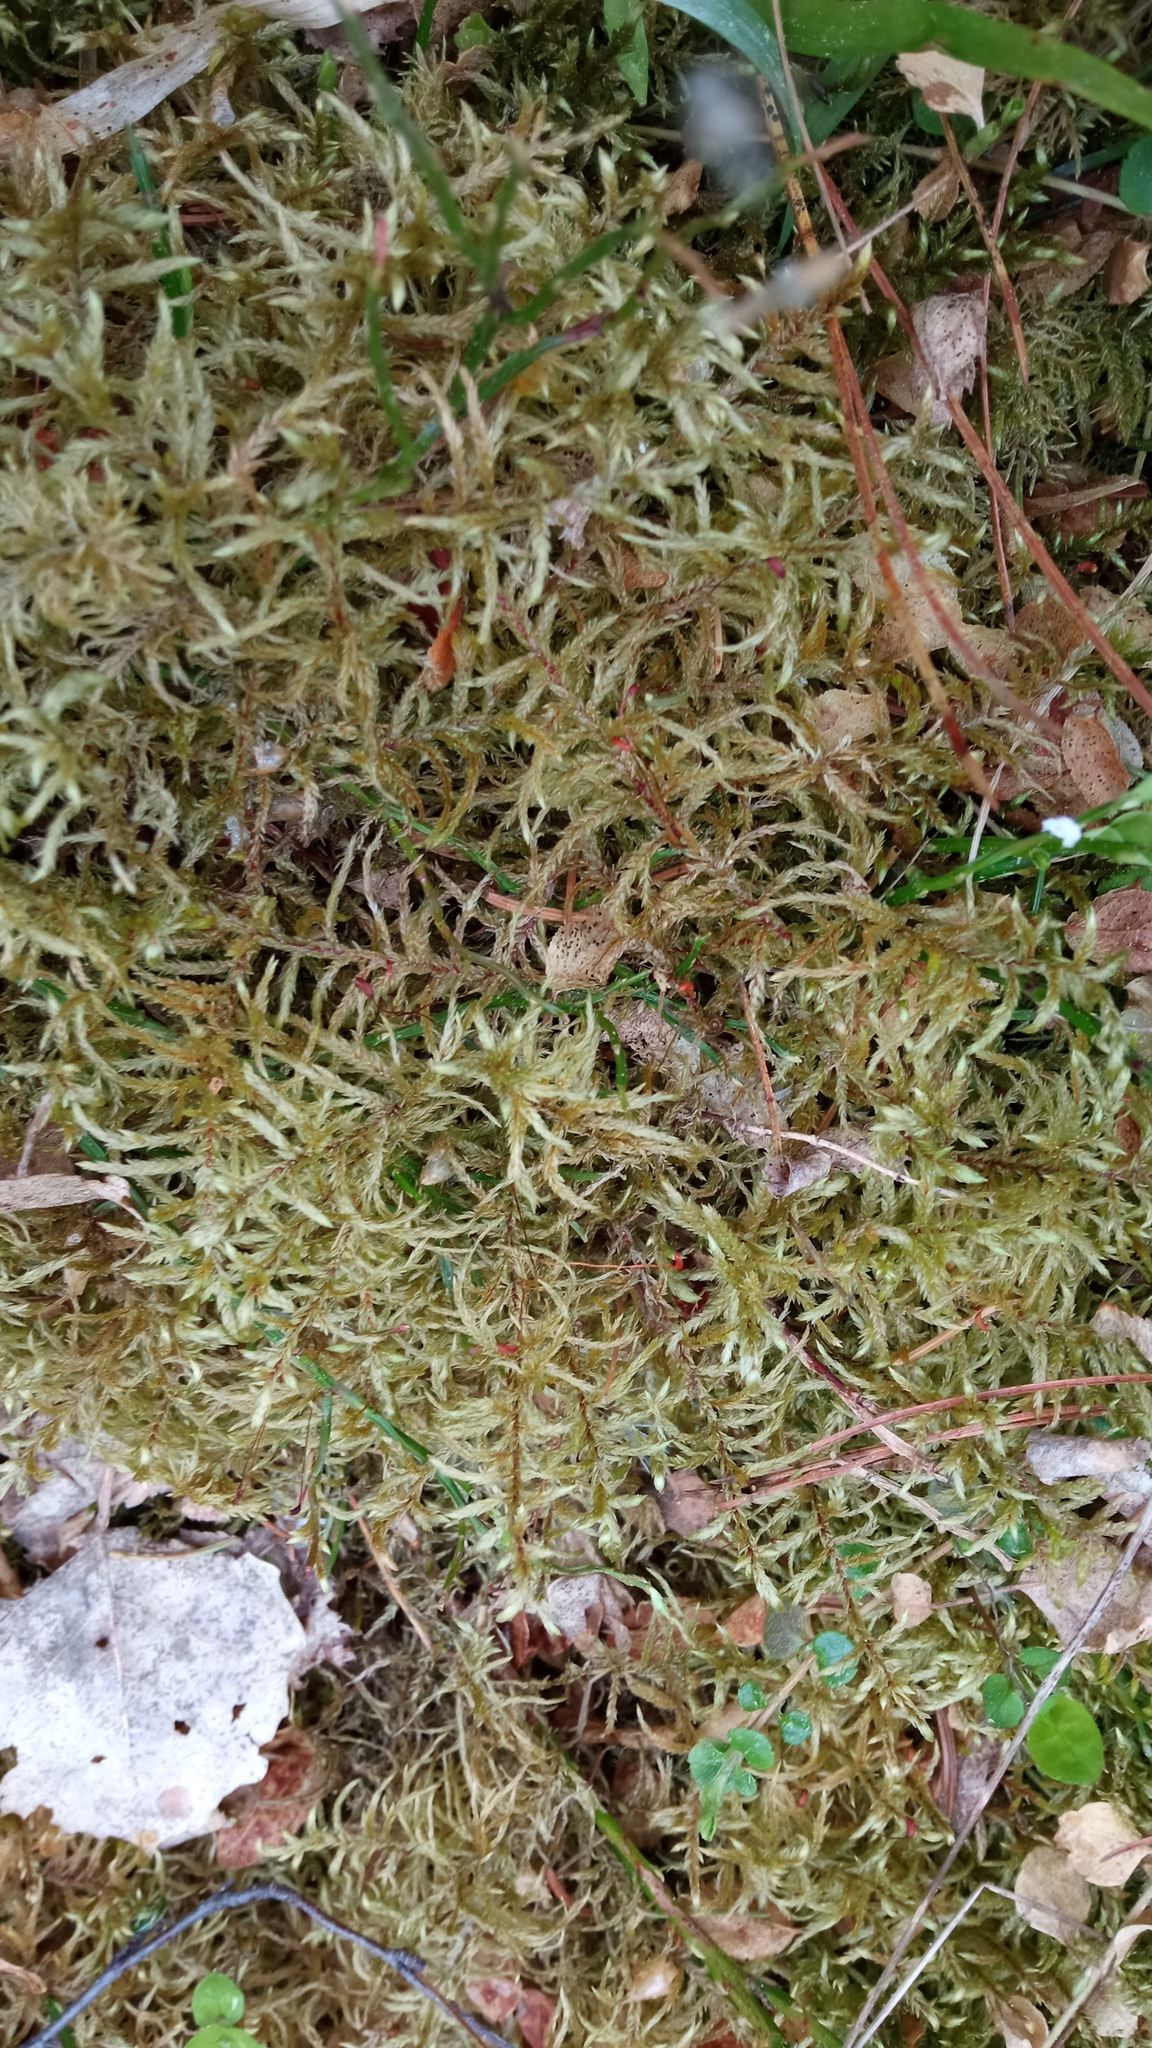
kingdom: Plantae
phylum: Bryophyta
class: Bryopsida
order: Hypnales
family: Hylocomiaceae
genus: Pleurozium
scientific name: Pleurozium schreberi
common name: Red-stemmed feather moss
